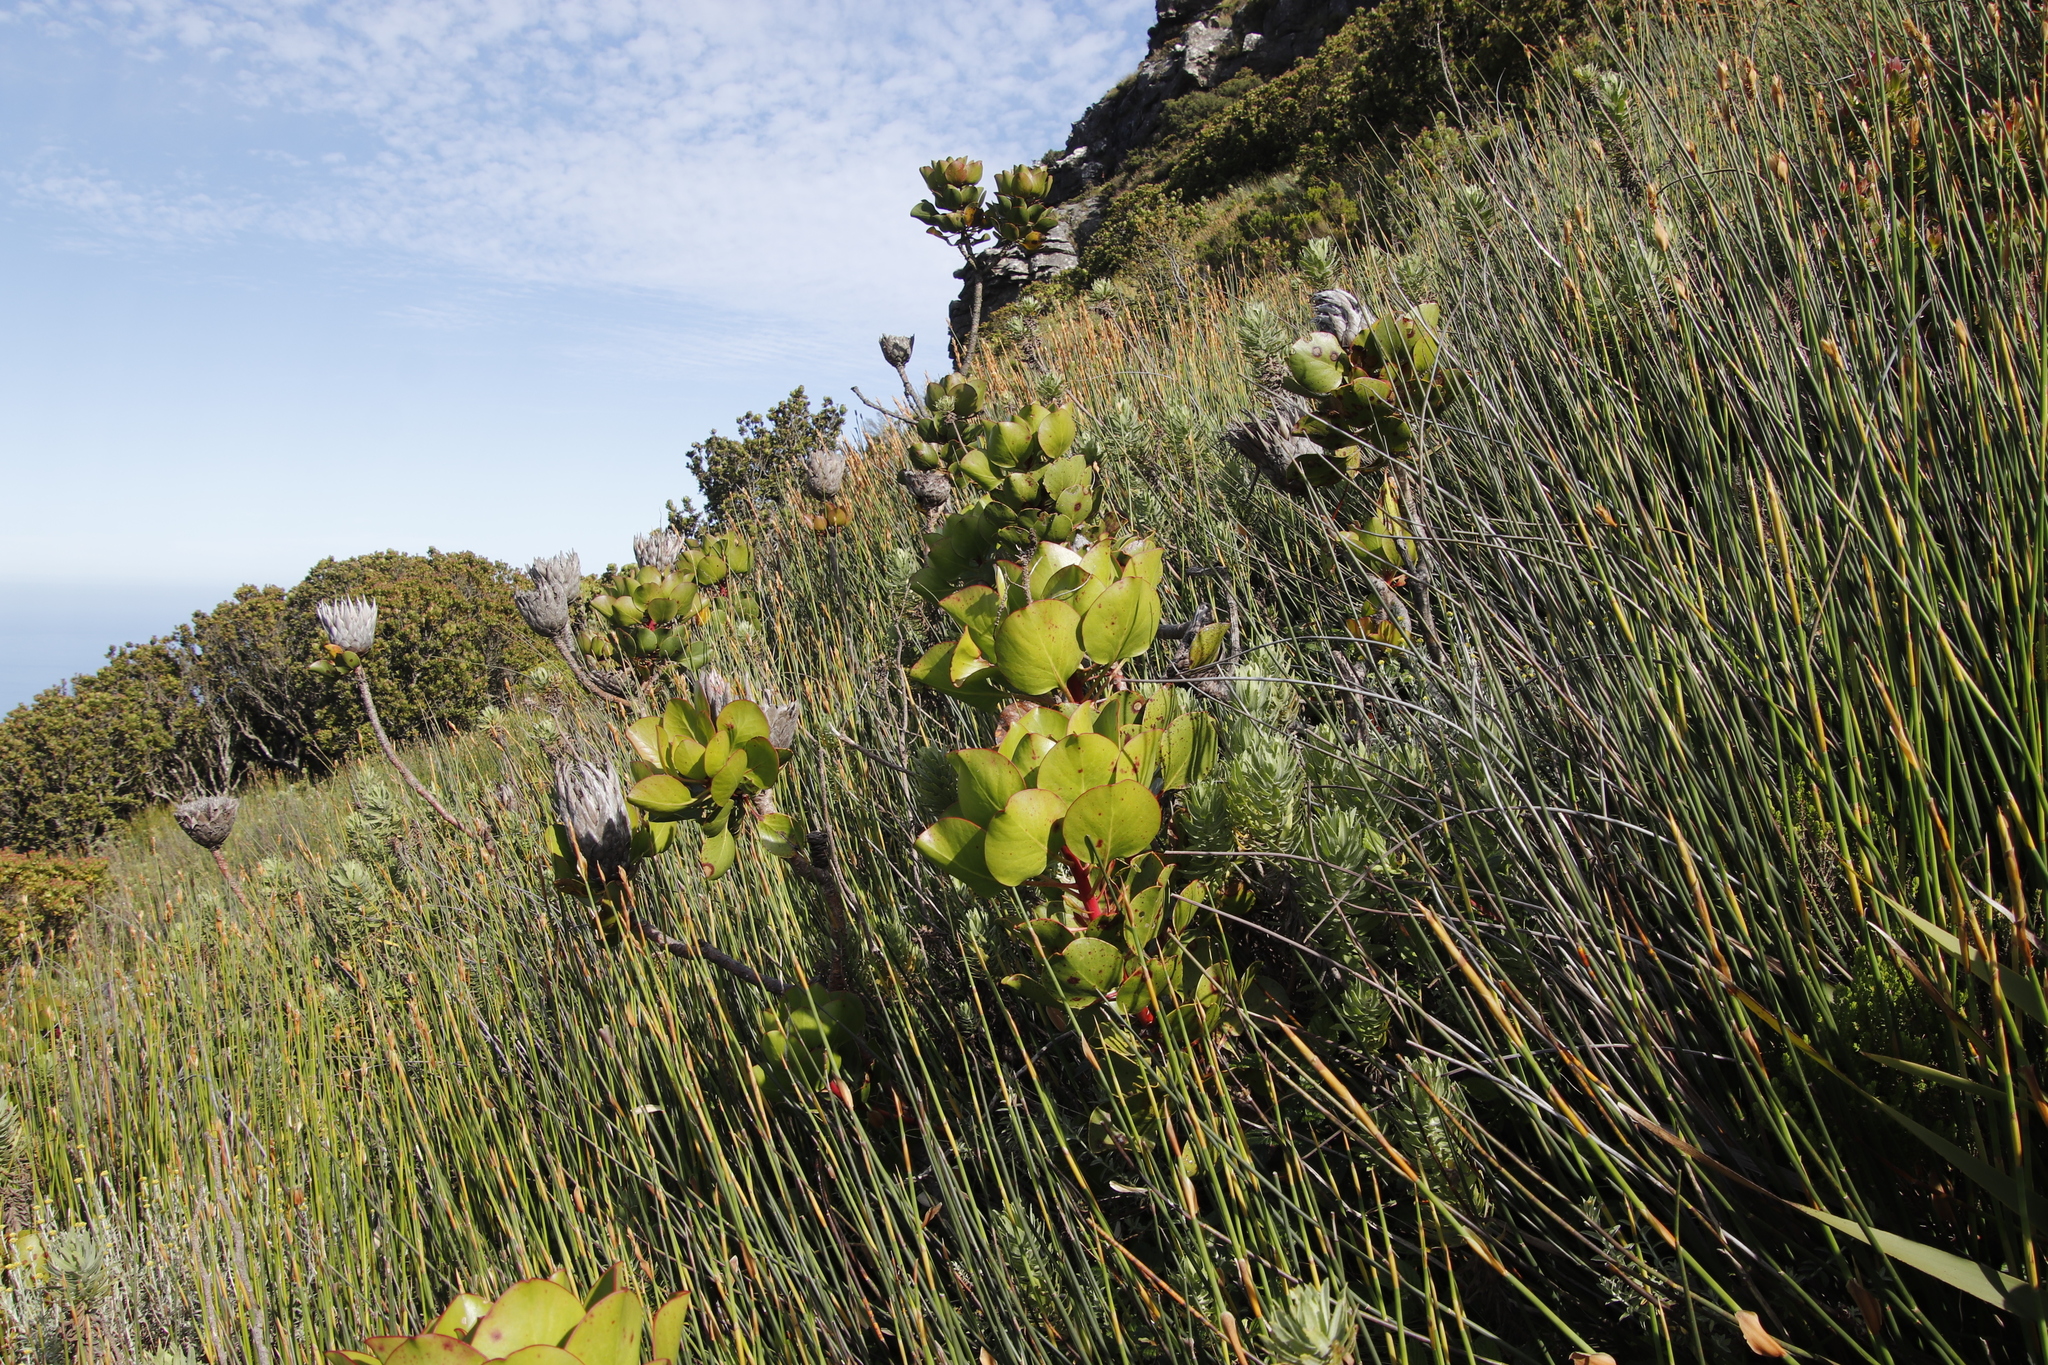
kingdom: Plantae
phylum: Tracheophyta
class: Magnoliopsida
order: Proteales
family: Proteaceae
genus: Protea
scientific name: Protea cynaroides
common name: King protea
